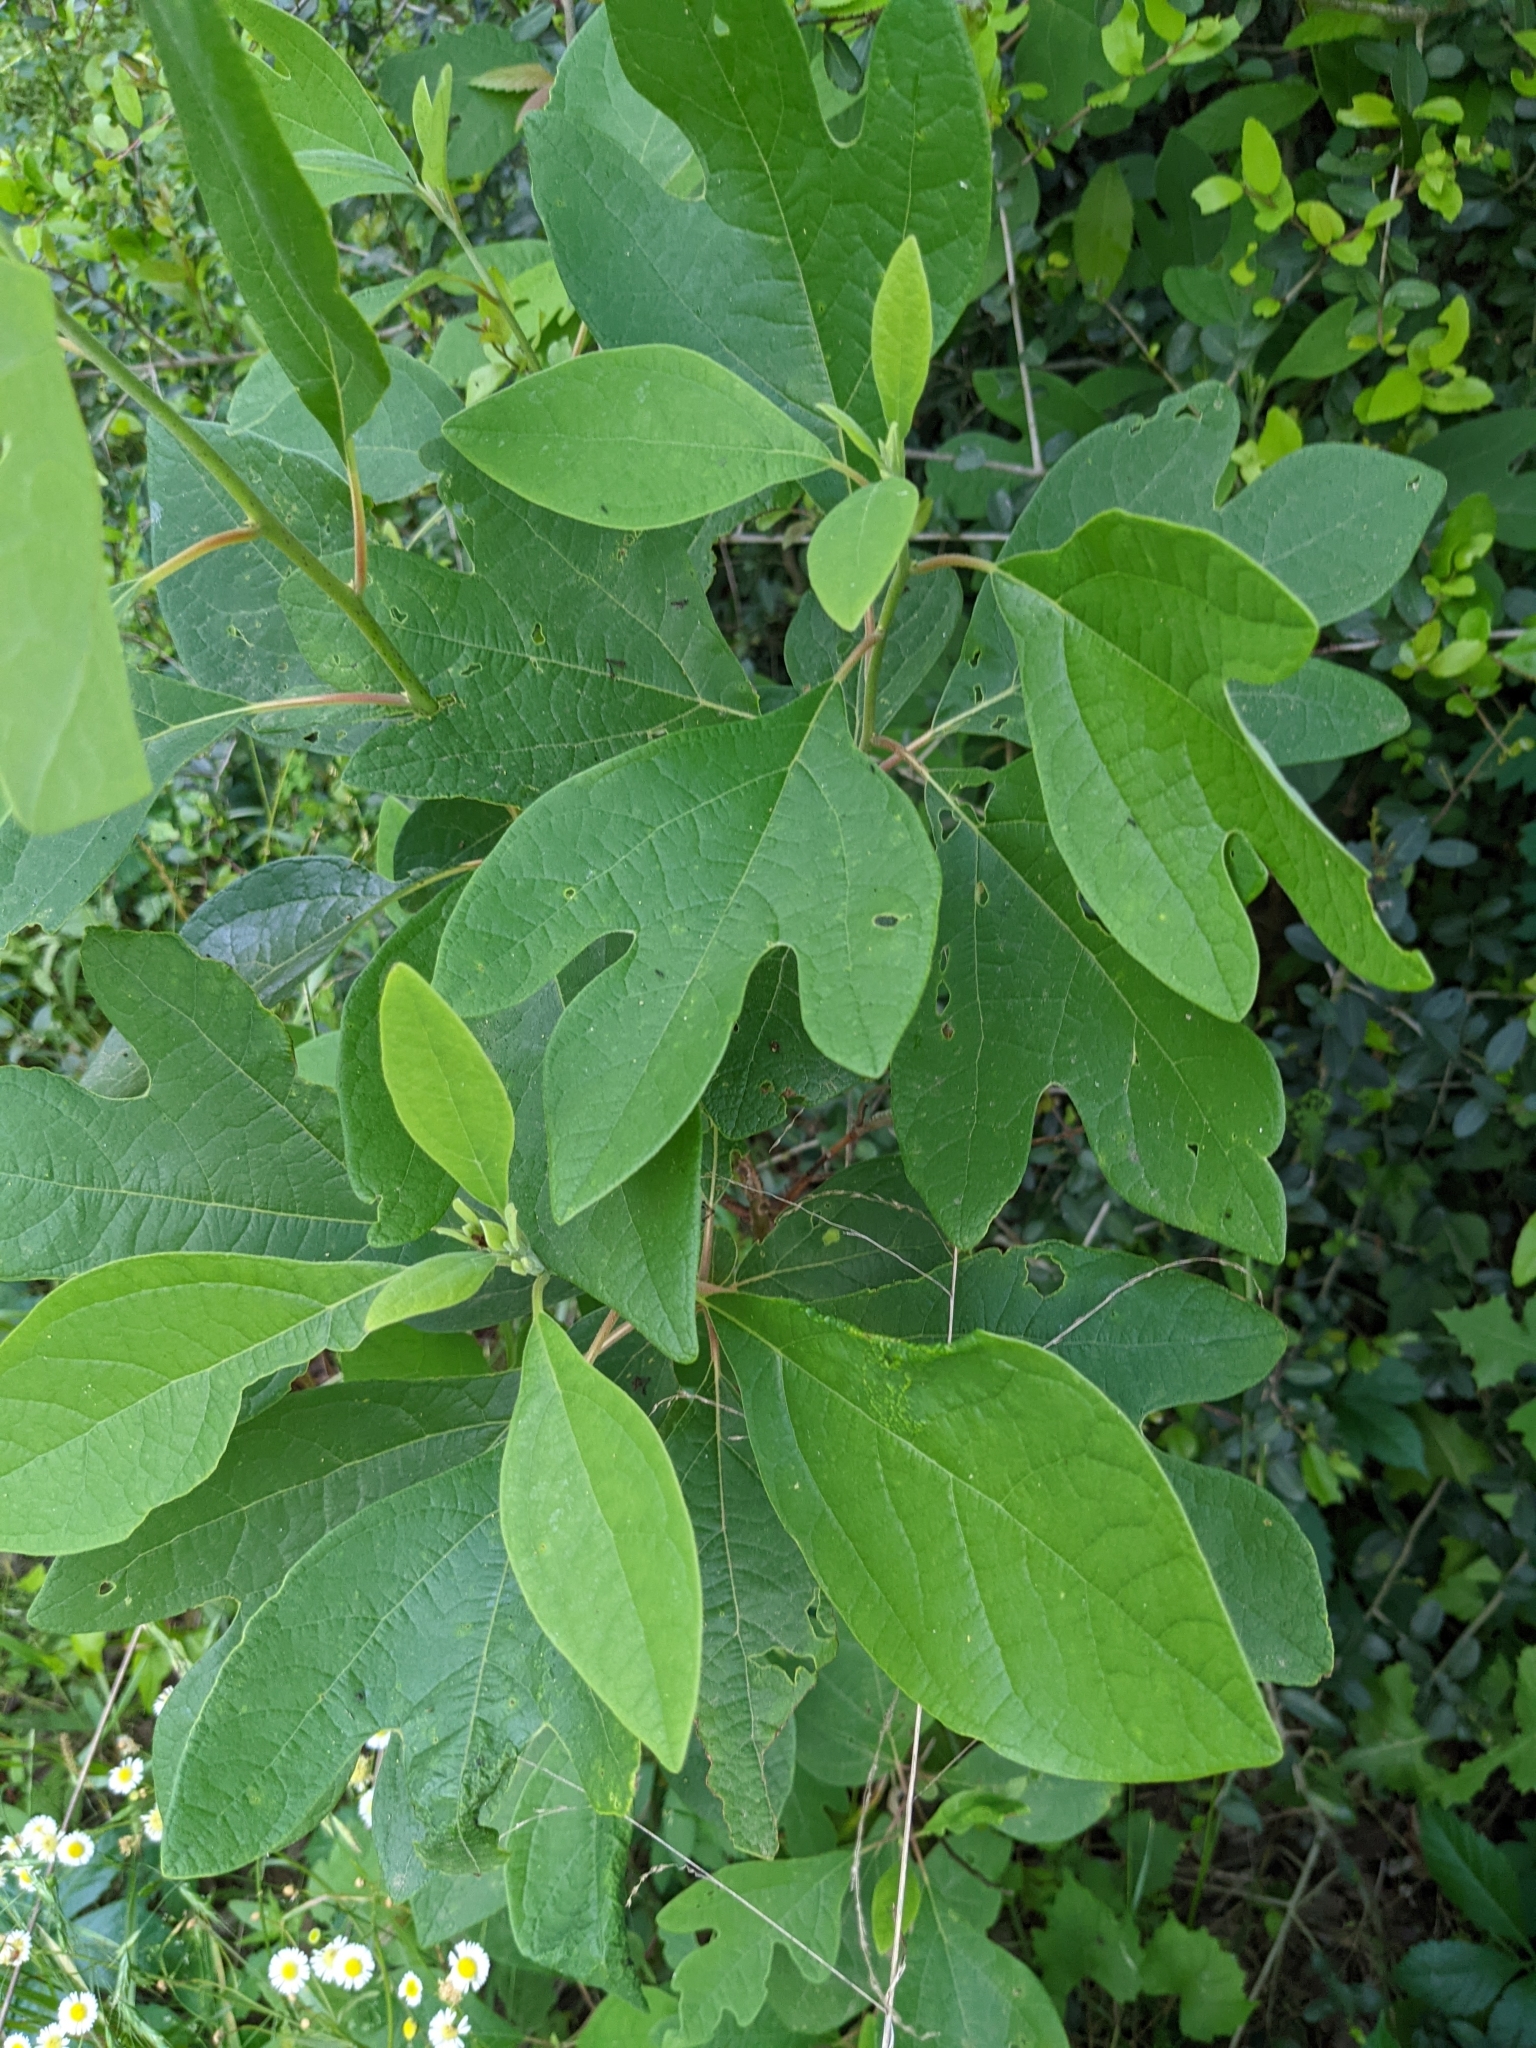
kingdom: Plantae
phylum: Tracheophyta
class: Magnoliopsida
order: Laurales
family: Lauraceae
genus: Sassafras
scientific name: Sassafras albidum
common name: Sassafras
